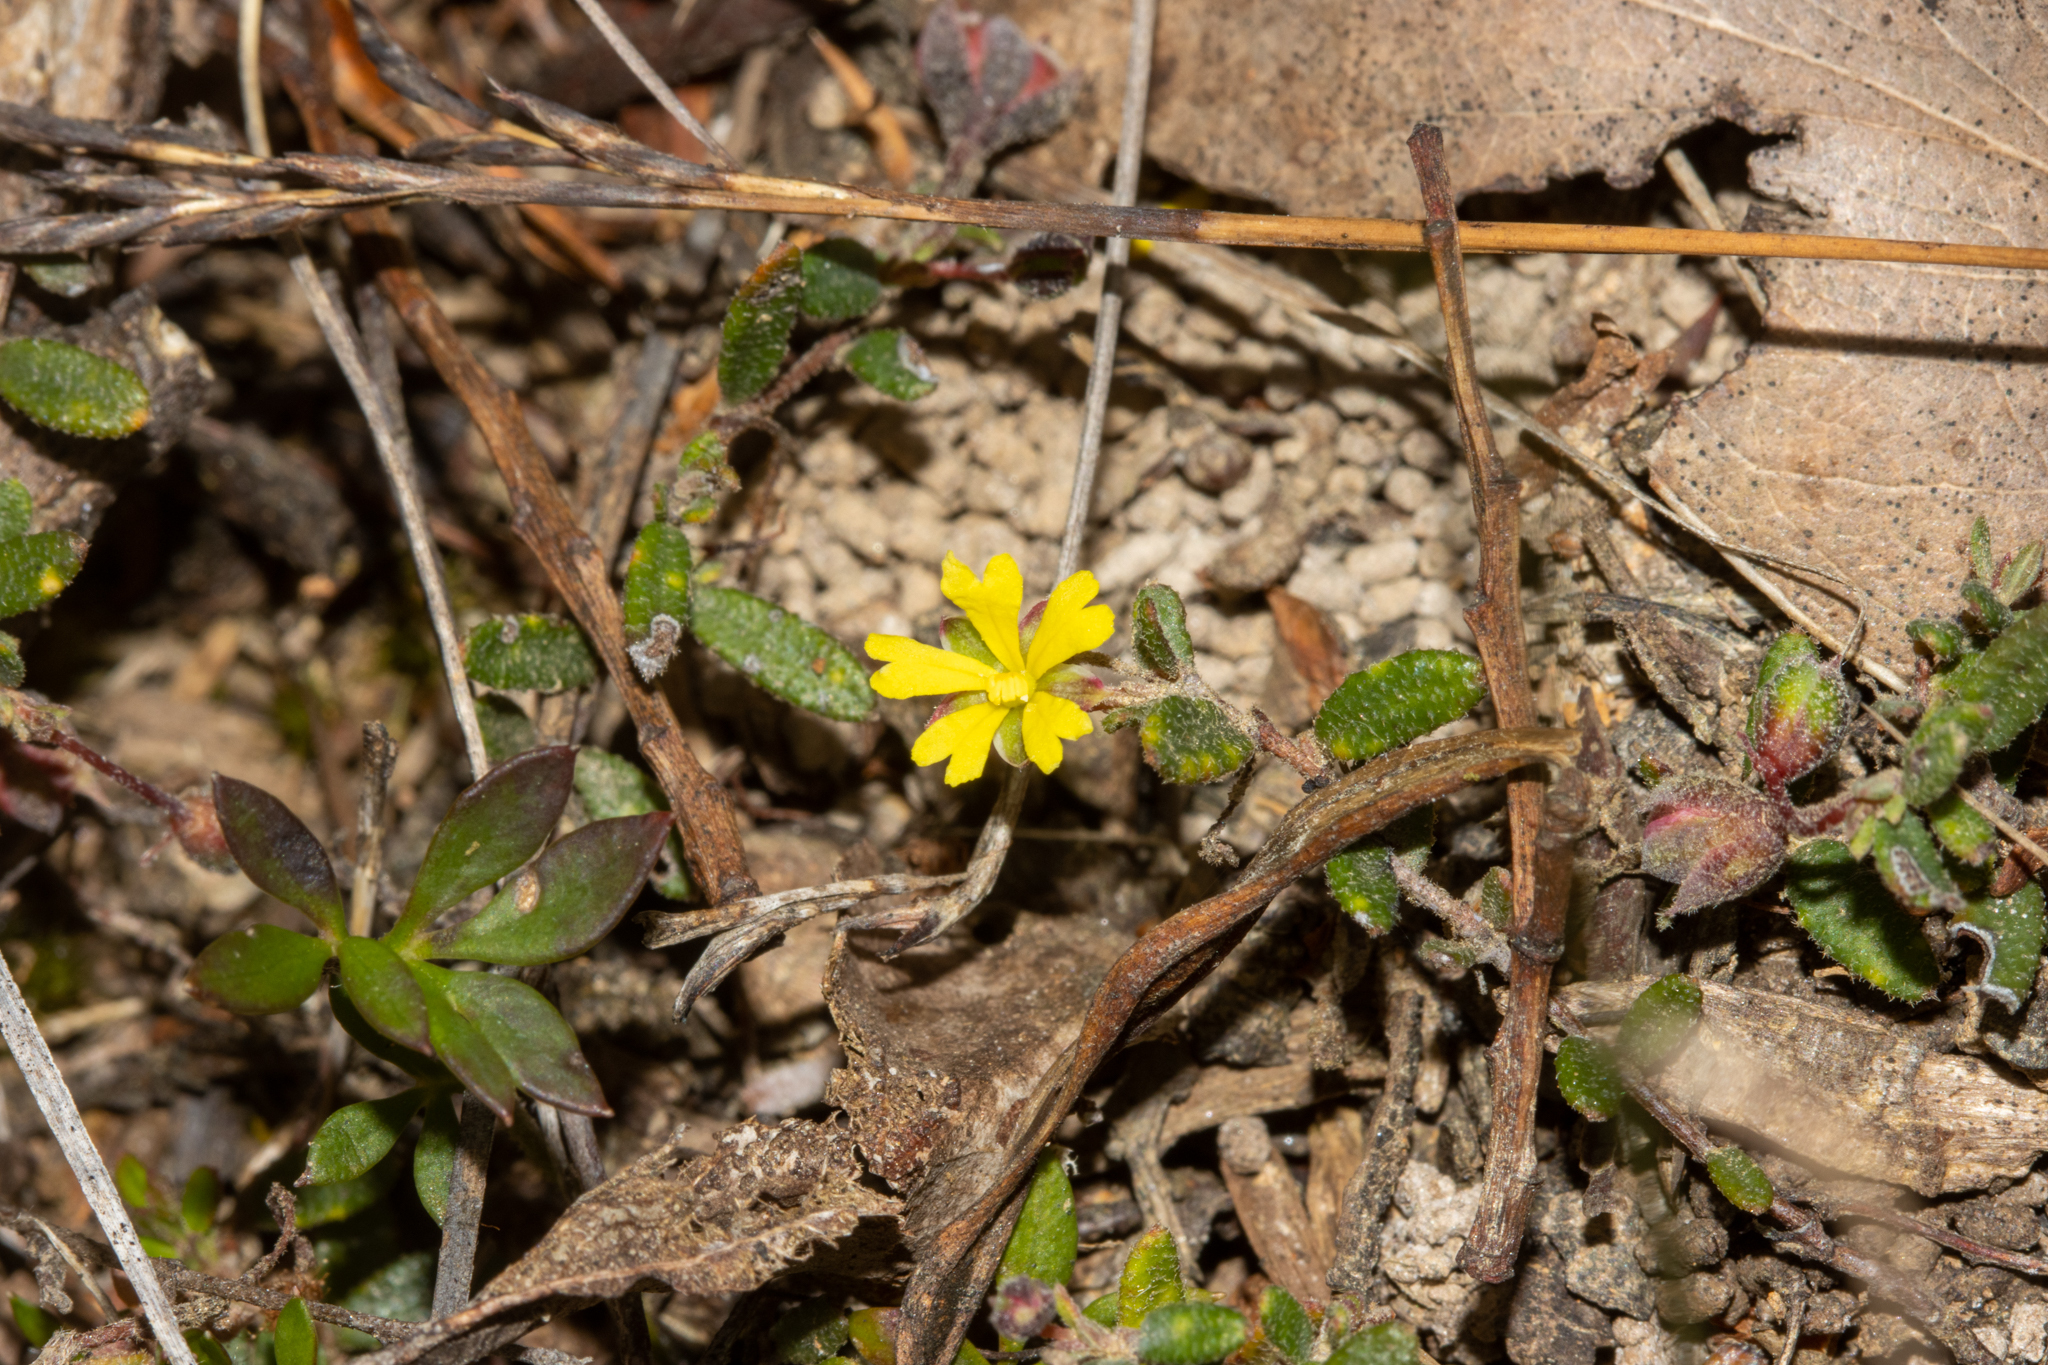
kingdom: Plantae
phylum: Tracheophyta
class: Magnoliopsida
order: Dilleniales
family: Dilleniaceae
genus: Hibbertia
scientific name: Hibbertia
